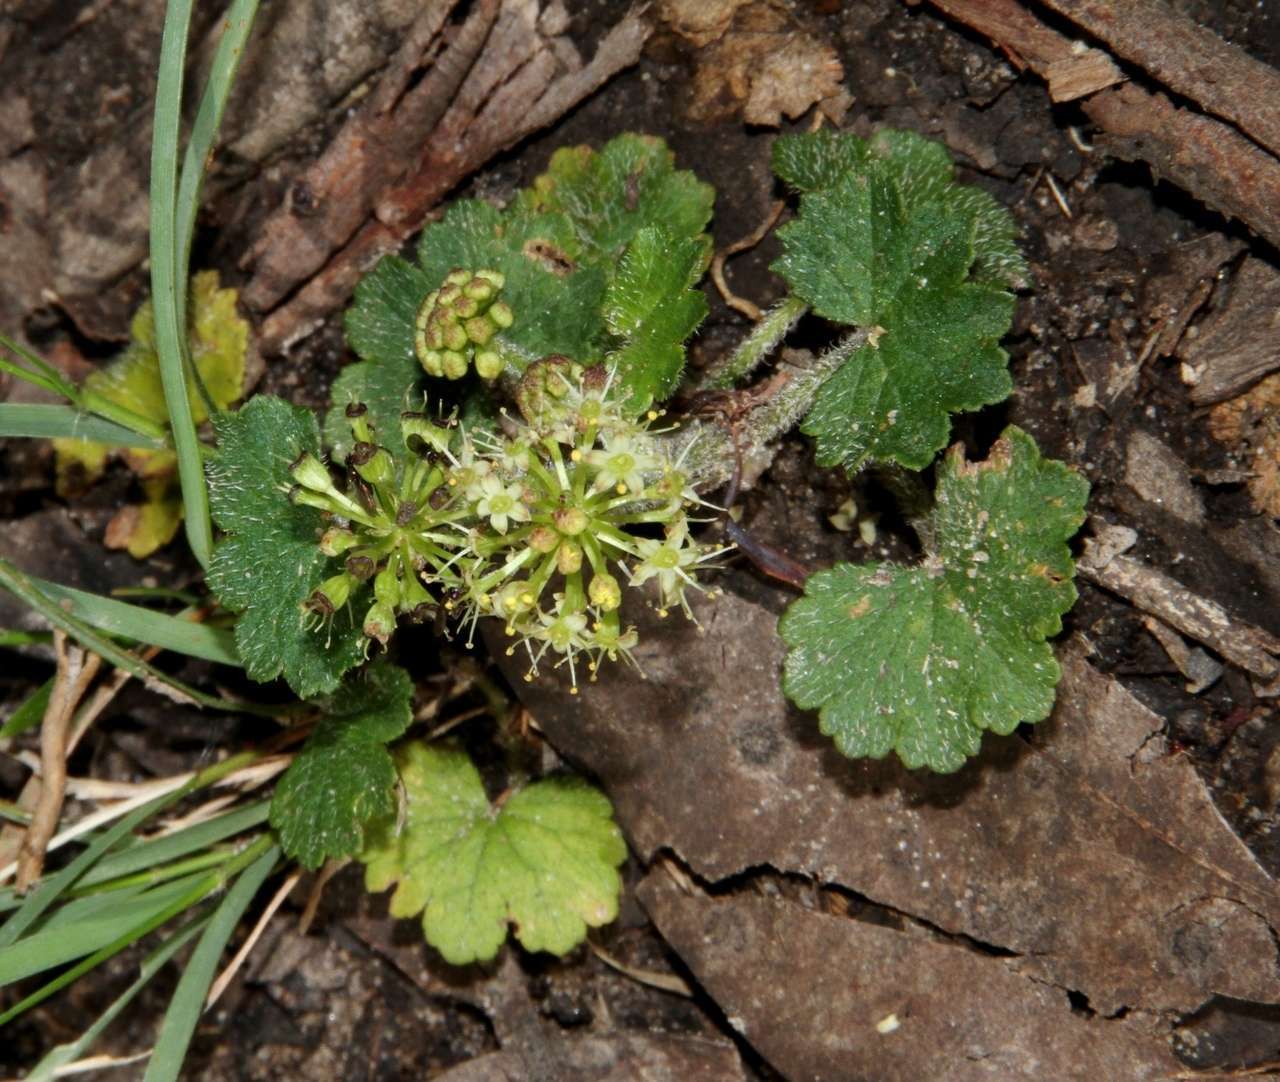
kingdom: Plantae
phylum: Tracheophyta
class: Magnoliopsida
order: Apiales
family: Araliaceae
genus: Hydrocotyle
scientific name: Hydrocotyle laxiflora
